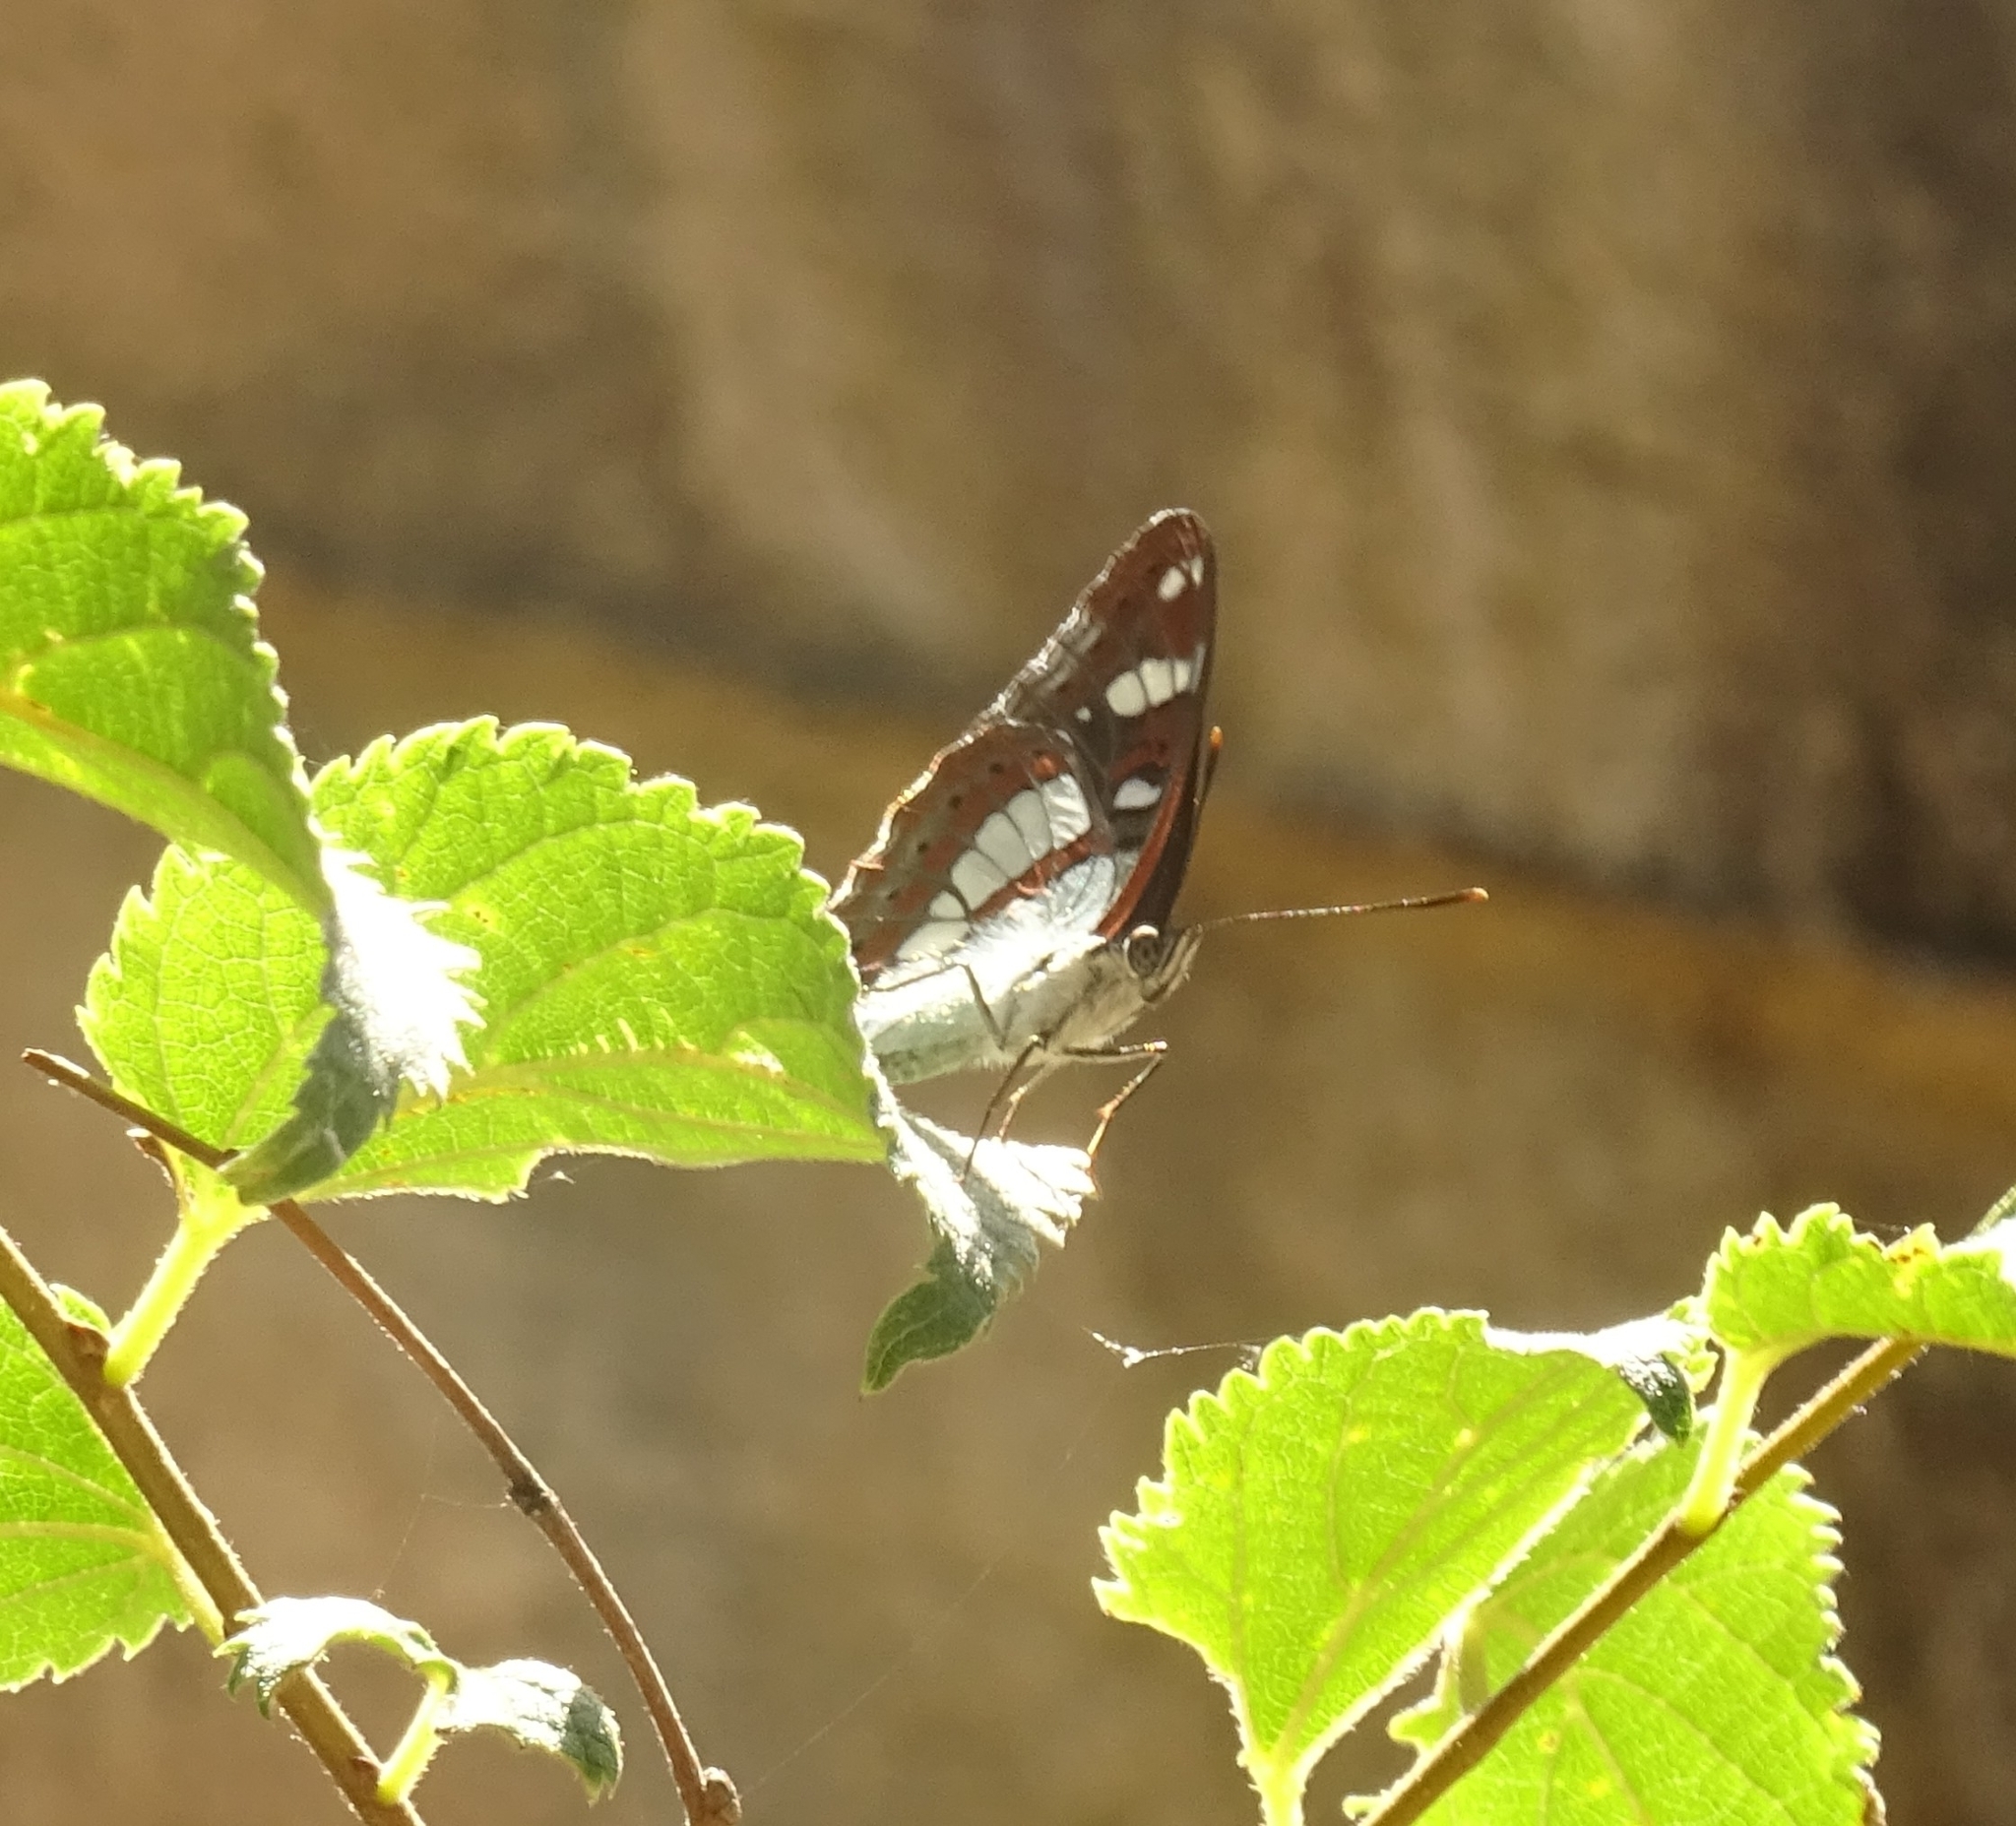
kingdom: Animalia
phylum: Arthropoda
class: Insecta
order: Lepidoptera
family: Nymphalidae
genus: Limenitis
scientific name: Limenitis reducta
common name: Southern white admiral
